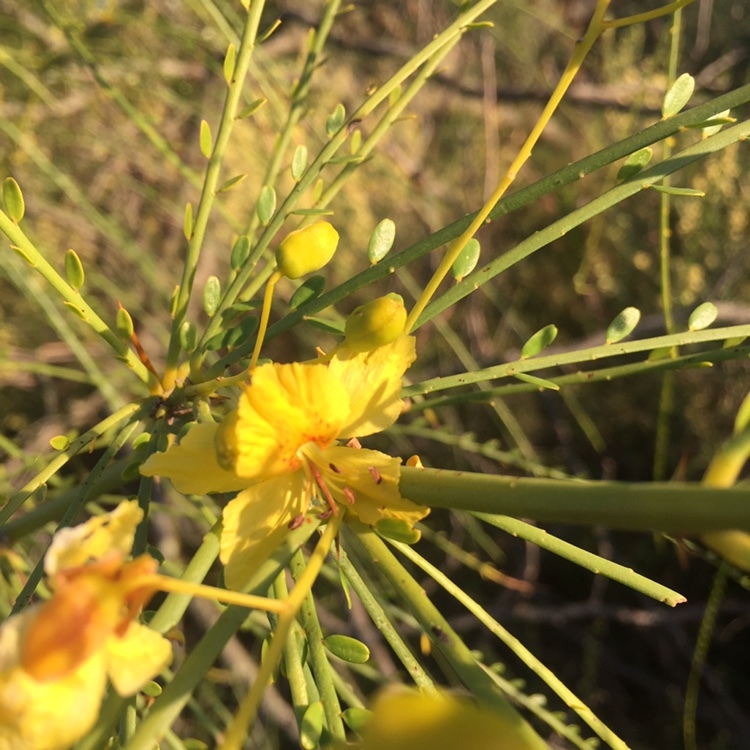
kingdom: Plantae
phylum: Tracheophyta
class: Magnoliopsida
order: Fabales
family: Fabaceae
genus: Parkinsonia
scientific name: Parkinsonia aculeata
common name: Jerusalem thorn
